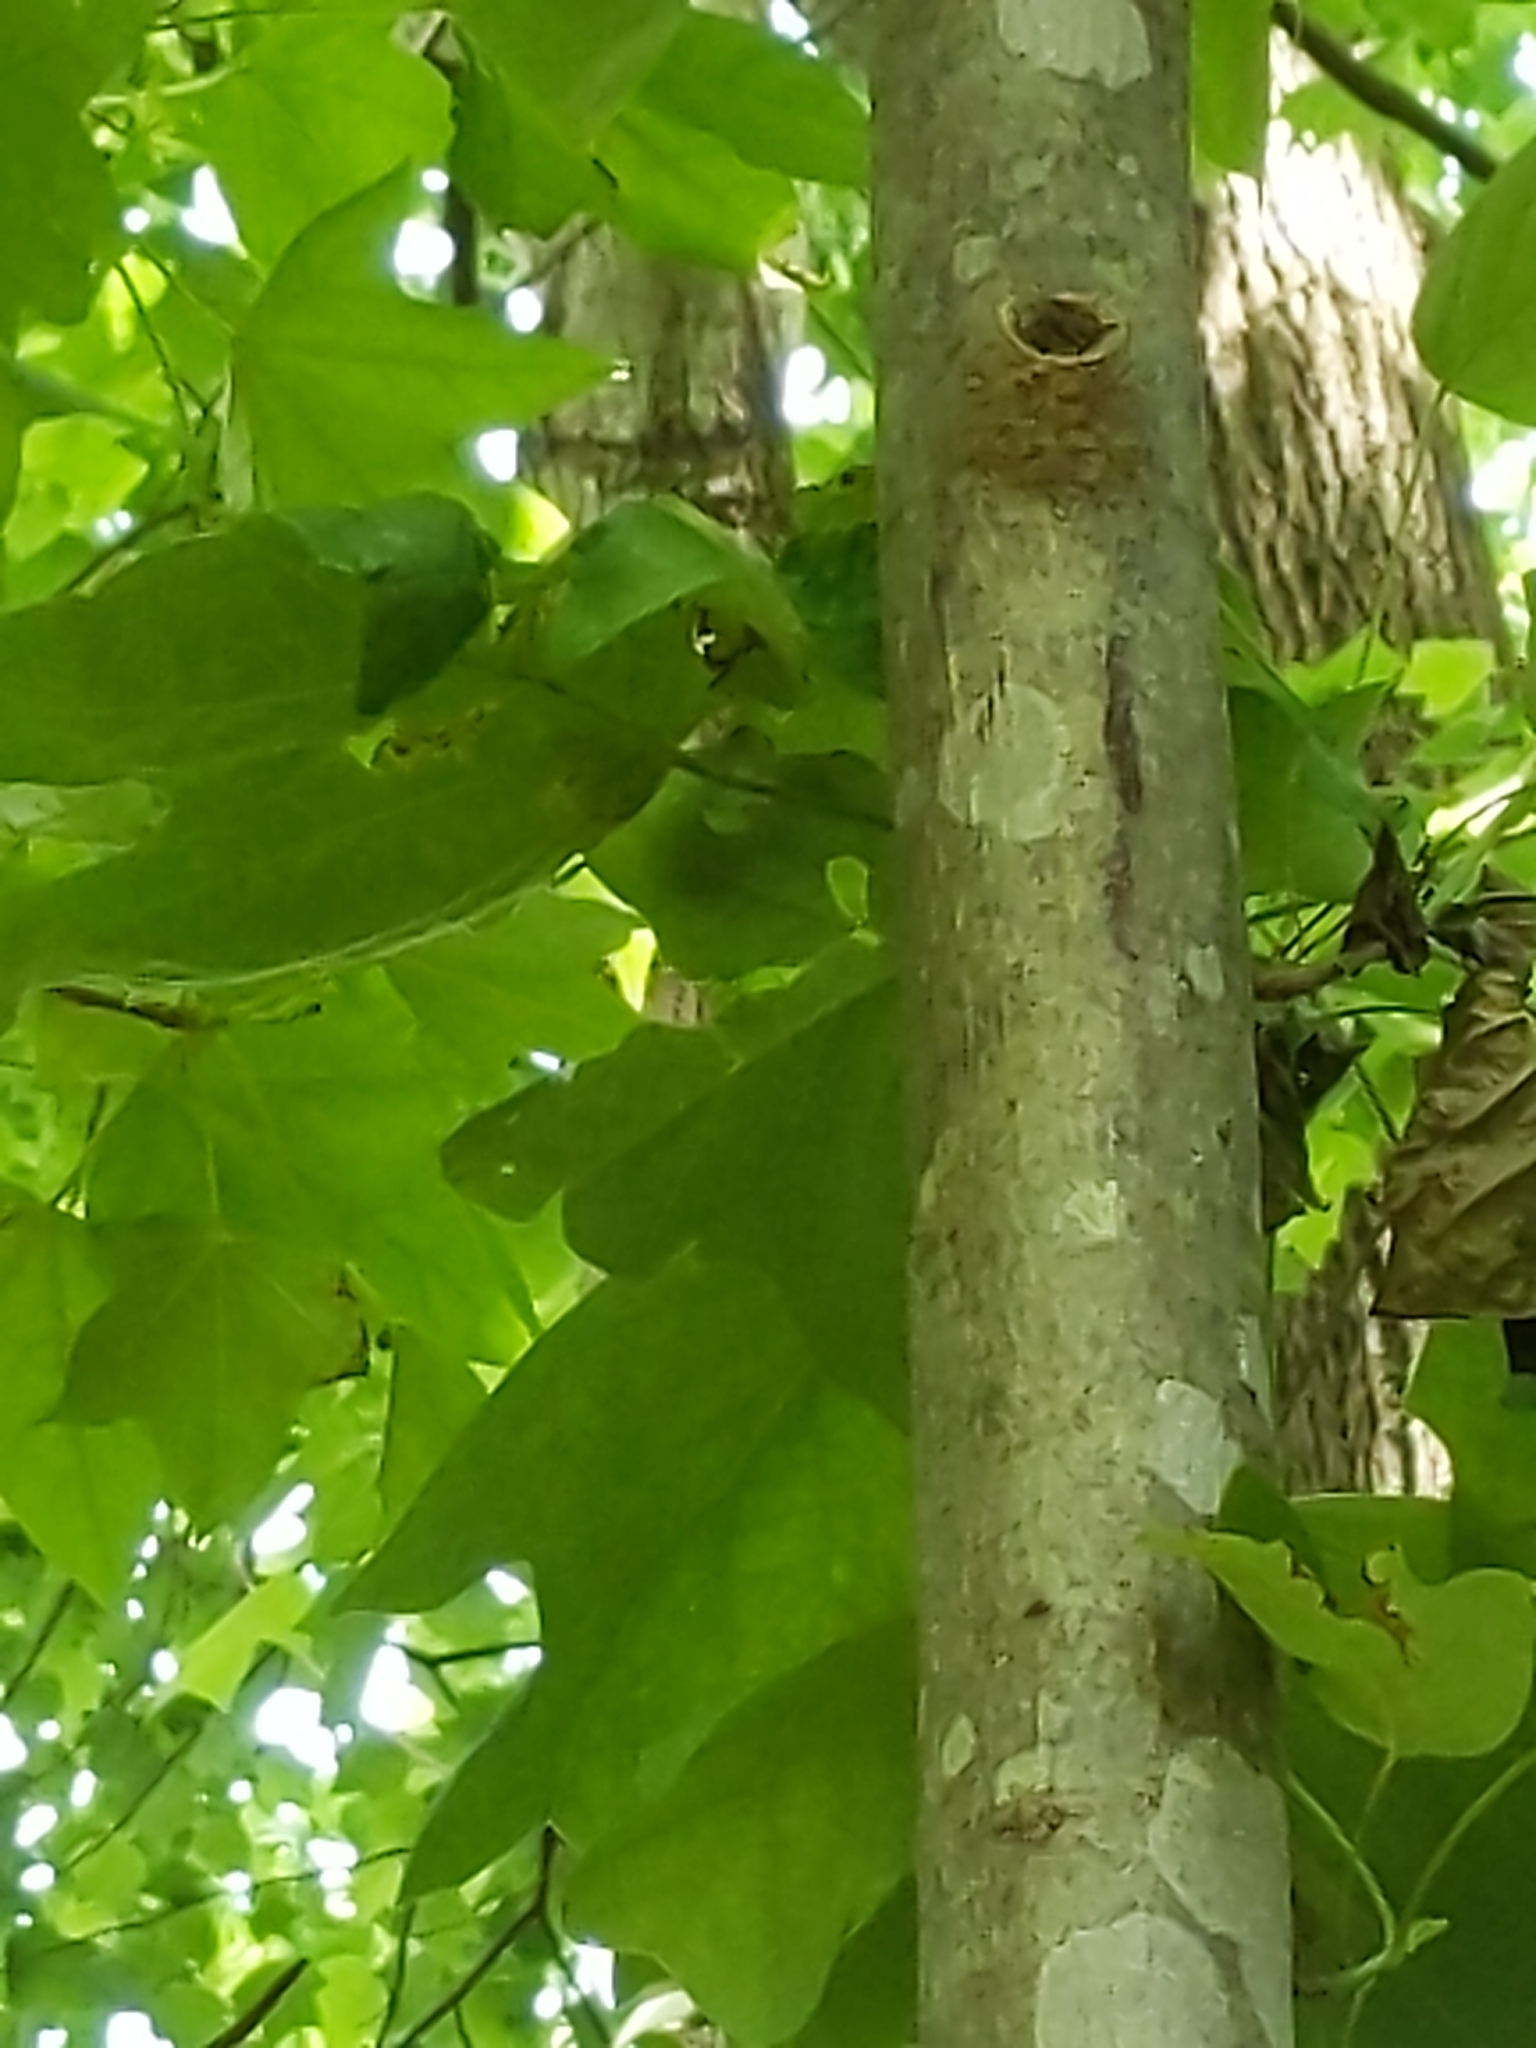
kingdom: Plantae
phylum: Tracheophyta
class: Magnoliopsida
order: Magnoliales
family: Magnoliaceae
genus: Liriodendron
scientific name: Liriodendron tulipifera
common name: Tulip tree
